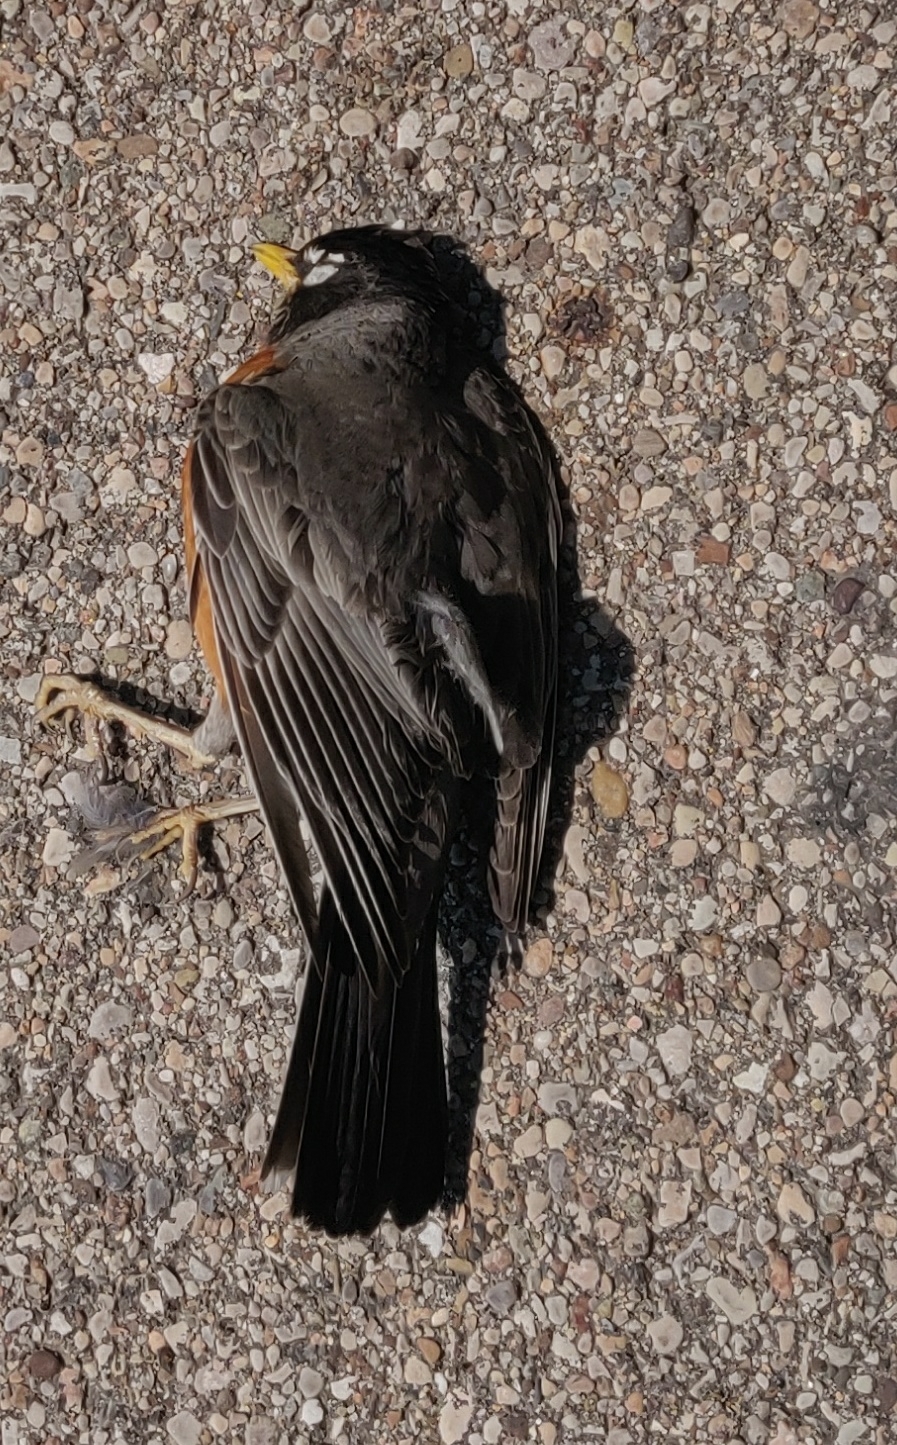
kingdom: Animalia
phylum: Chordata
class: Aves
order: Passeriformes
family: Turdidae
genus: Turdus
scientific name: Turdus migratorius
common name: American robin
